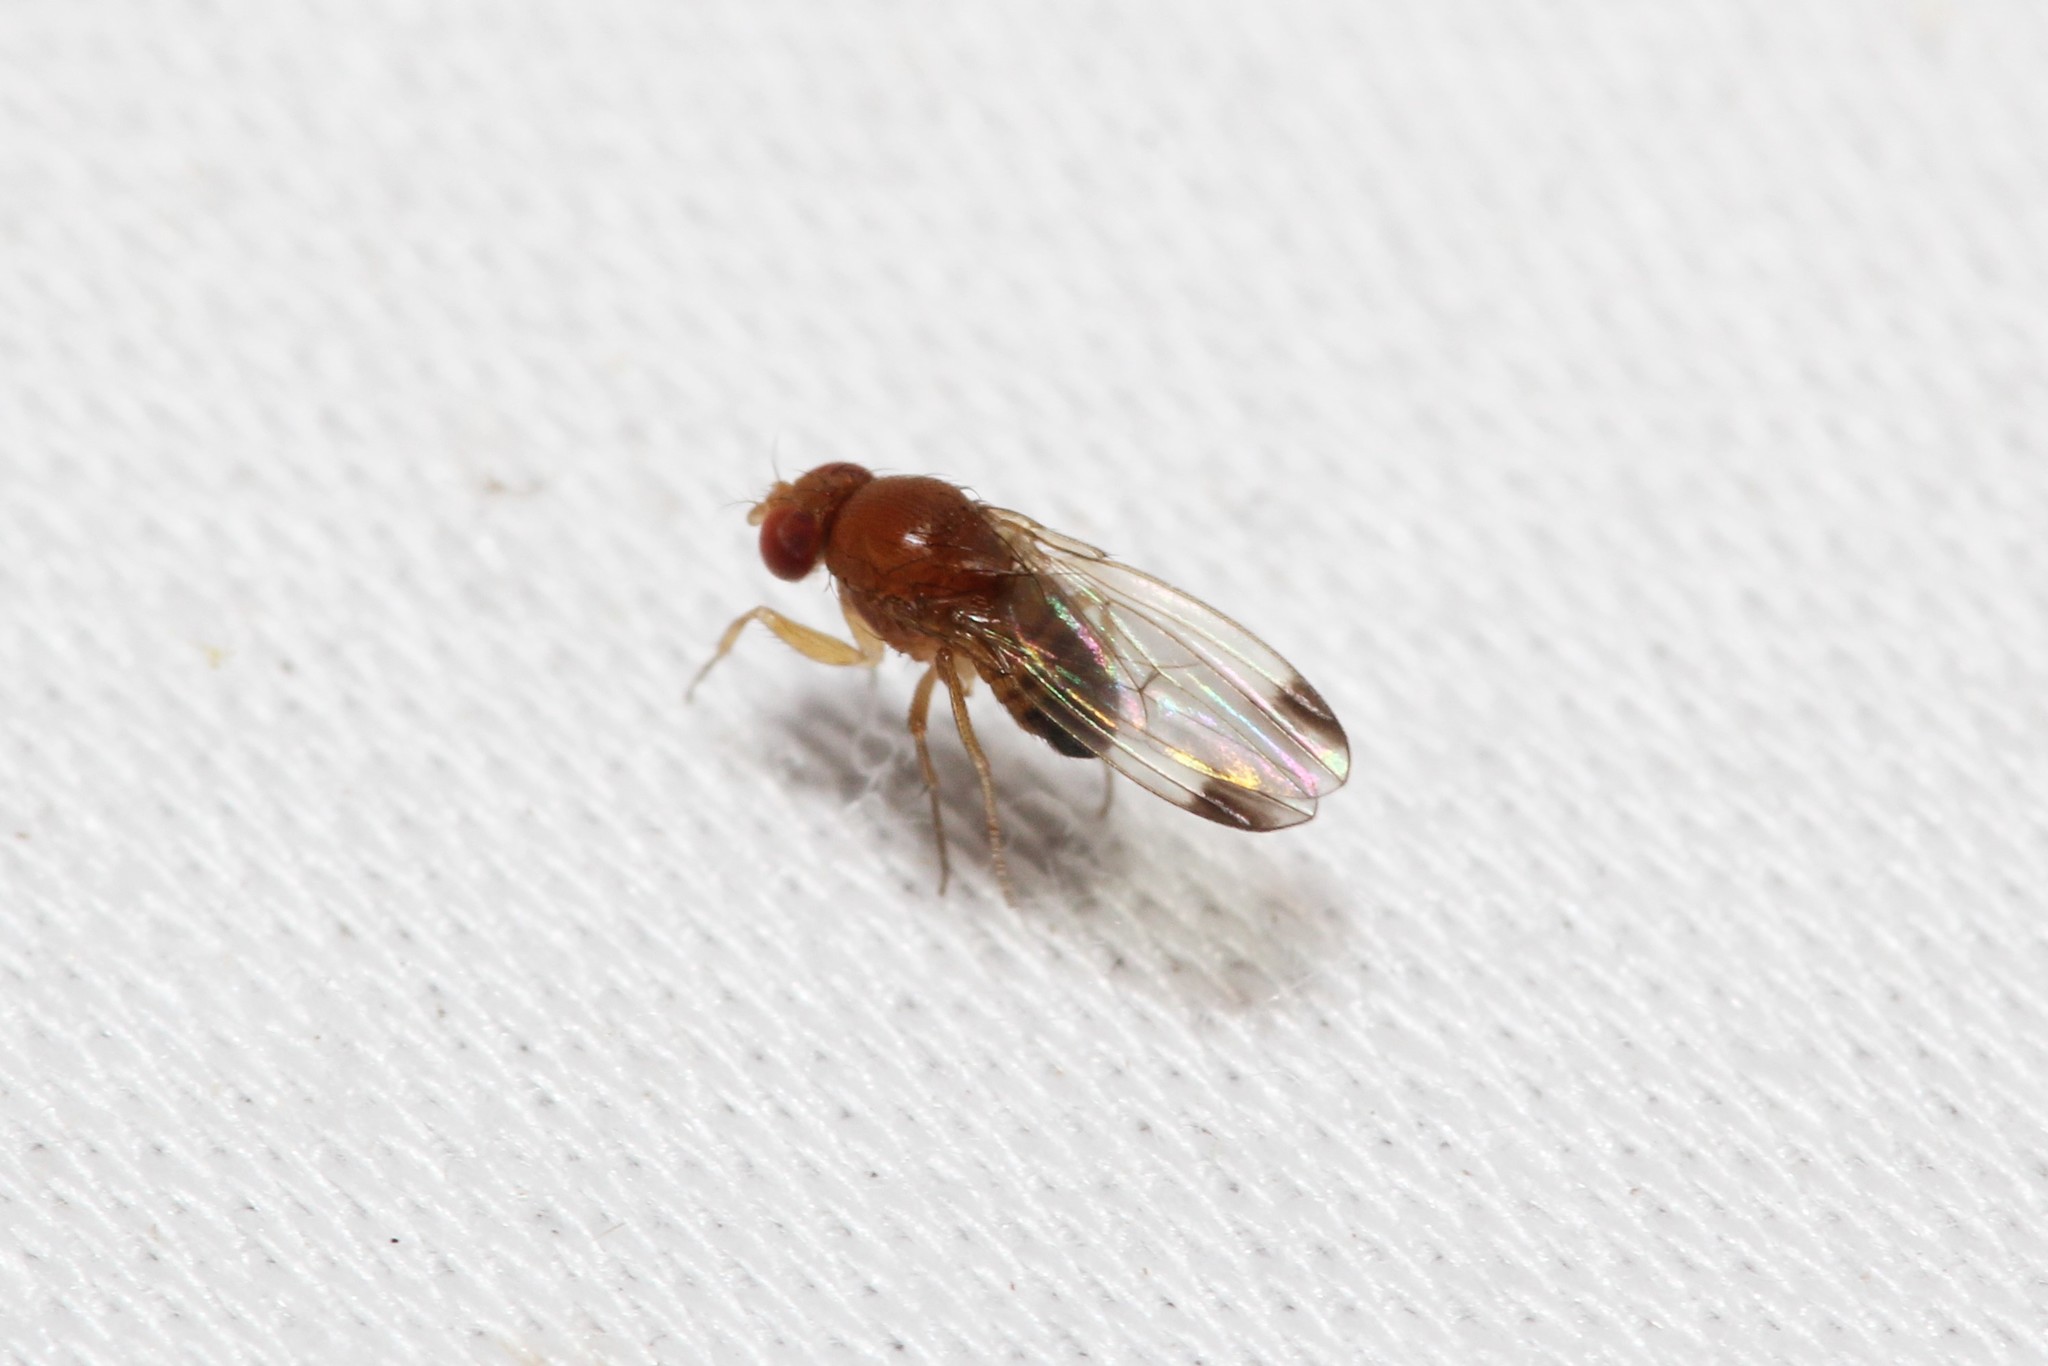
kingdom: Animalia
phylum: Arthropoda
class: Insecta
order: Diptera
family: Drosophilidae
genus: Drosophila
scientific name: Drosophila suzukii
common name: Spotted-wing drosophila
